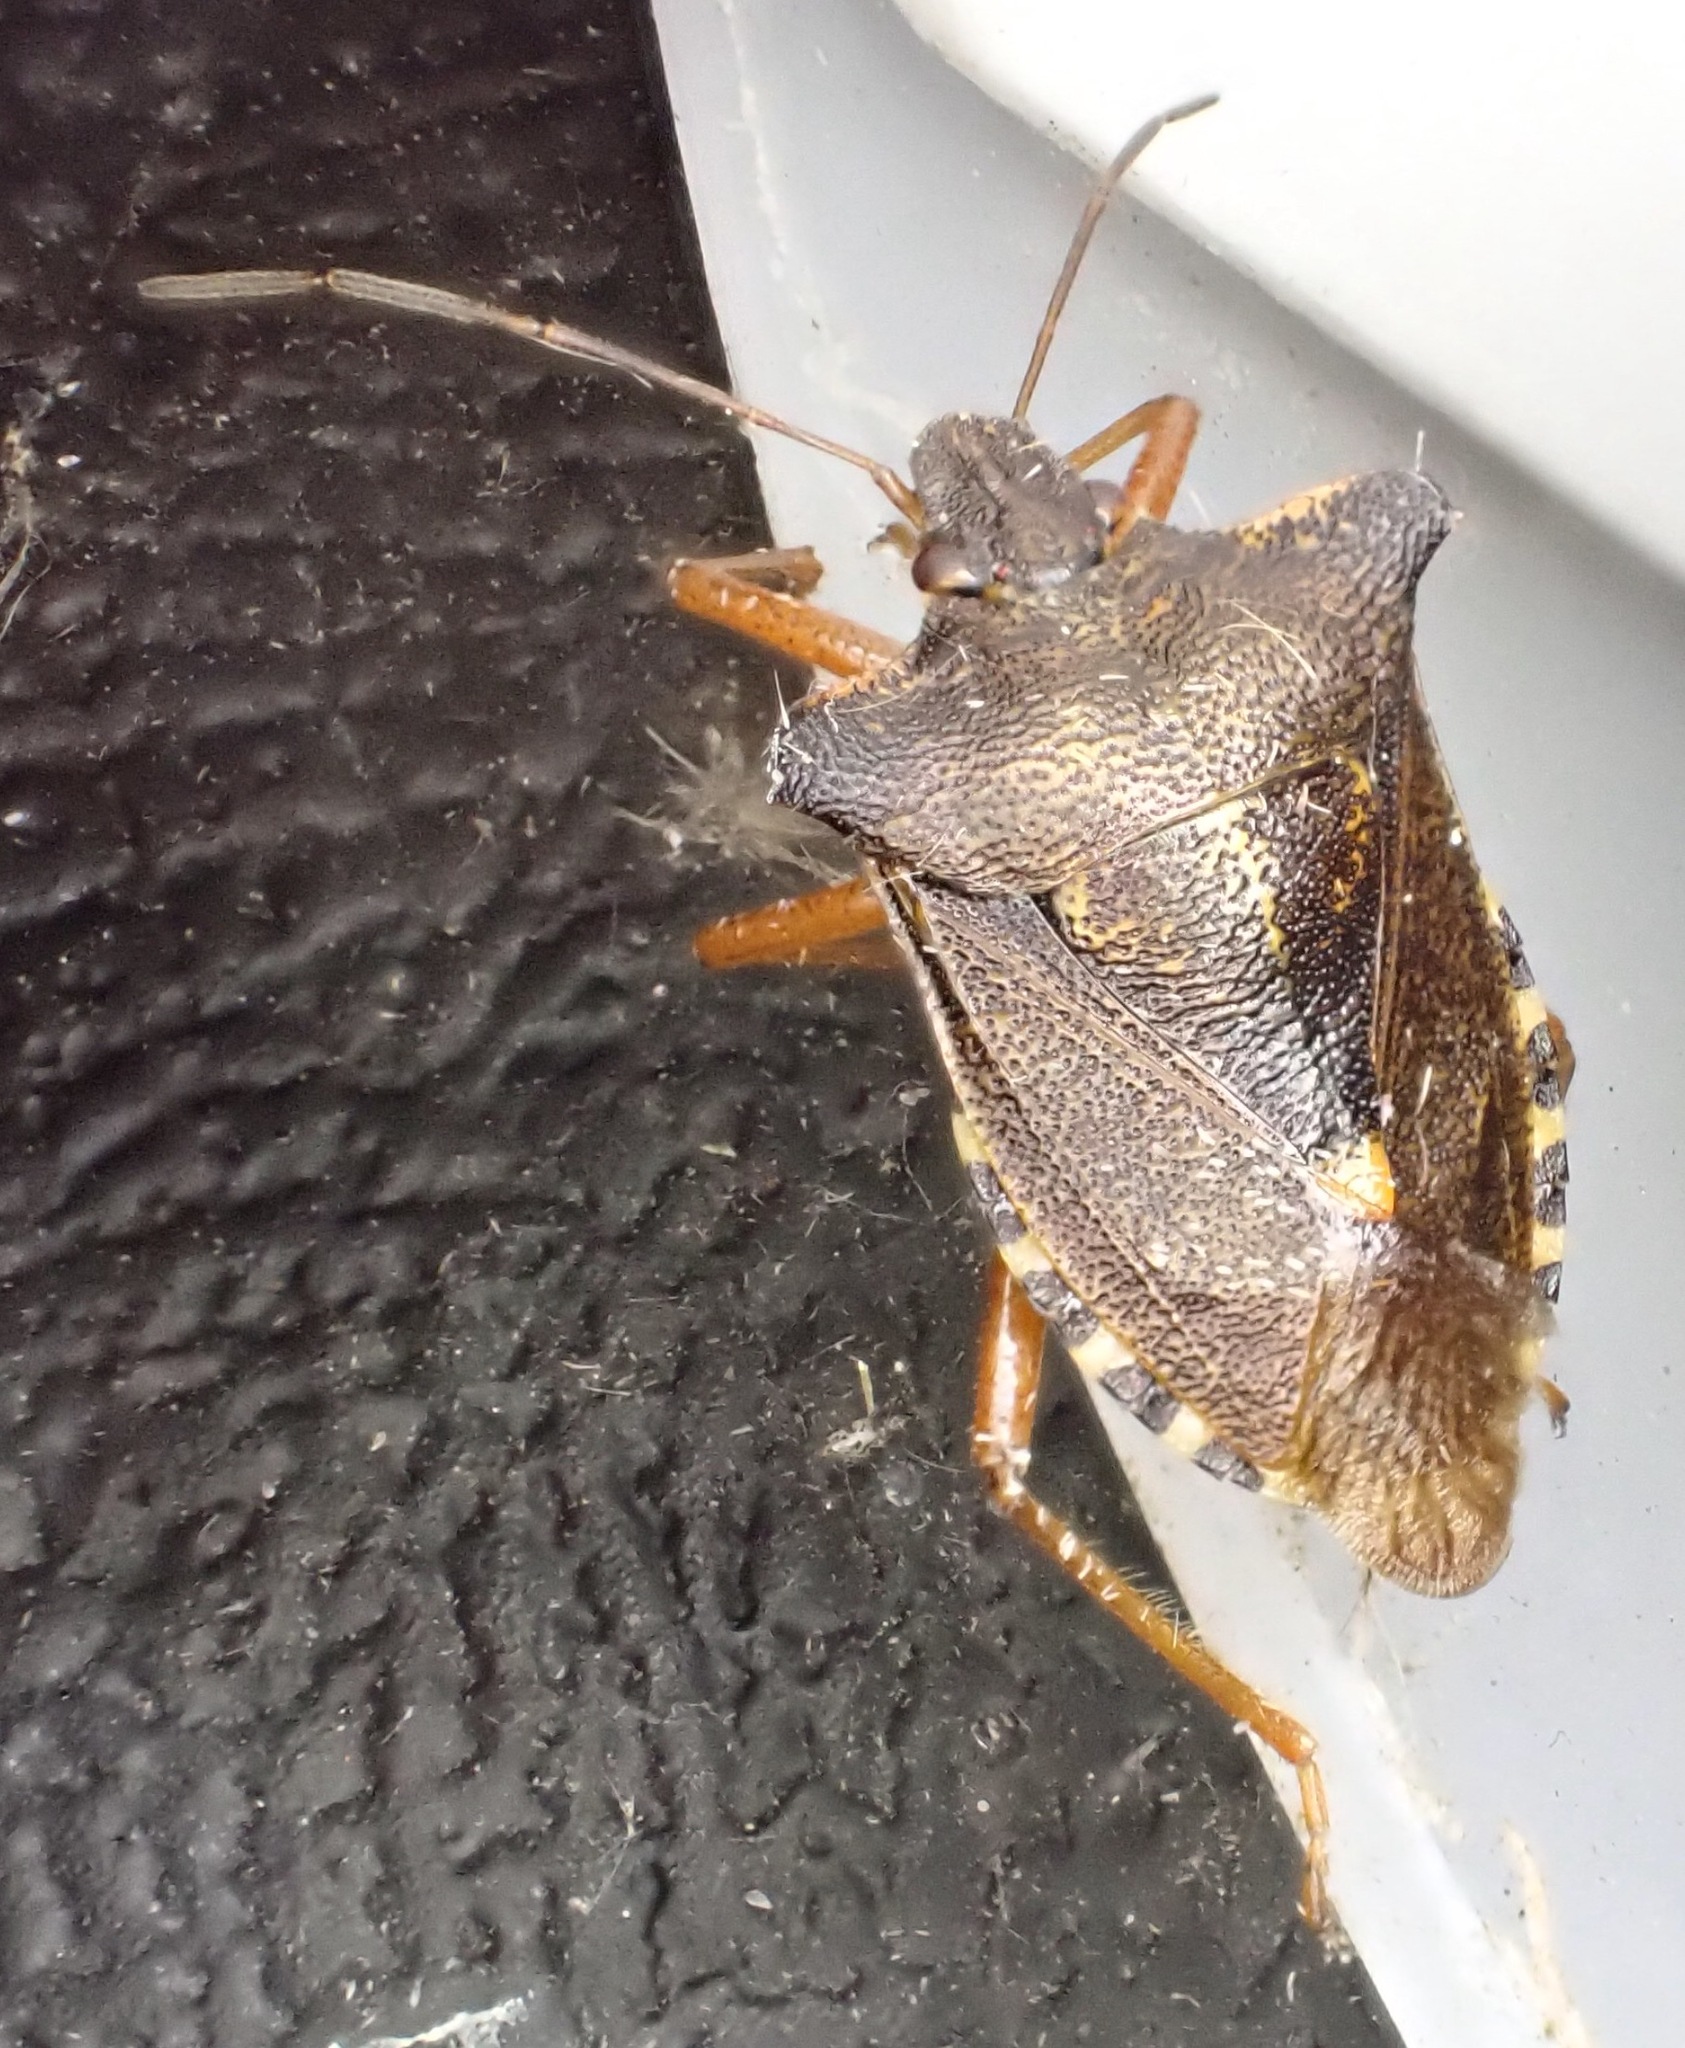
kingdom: Animalia
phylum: Arthropoda
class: Insecta
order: Hemiptera
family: Pentatomidae
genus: Pentatoma
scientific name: Pentatoma rufipes
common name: Forest bug
